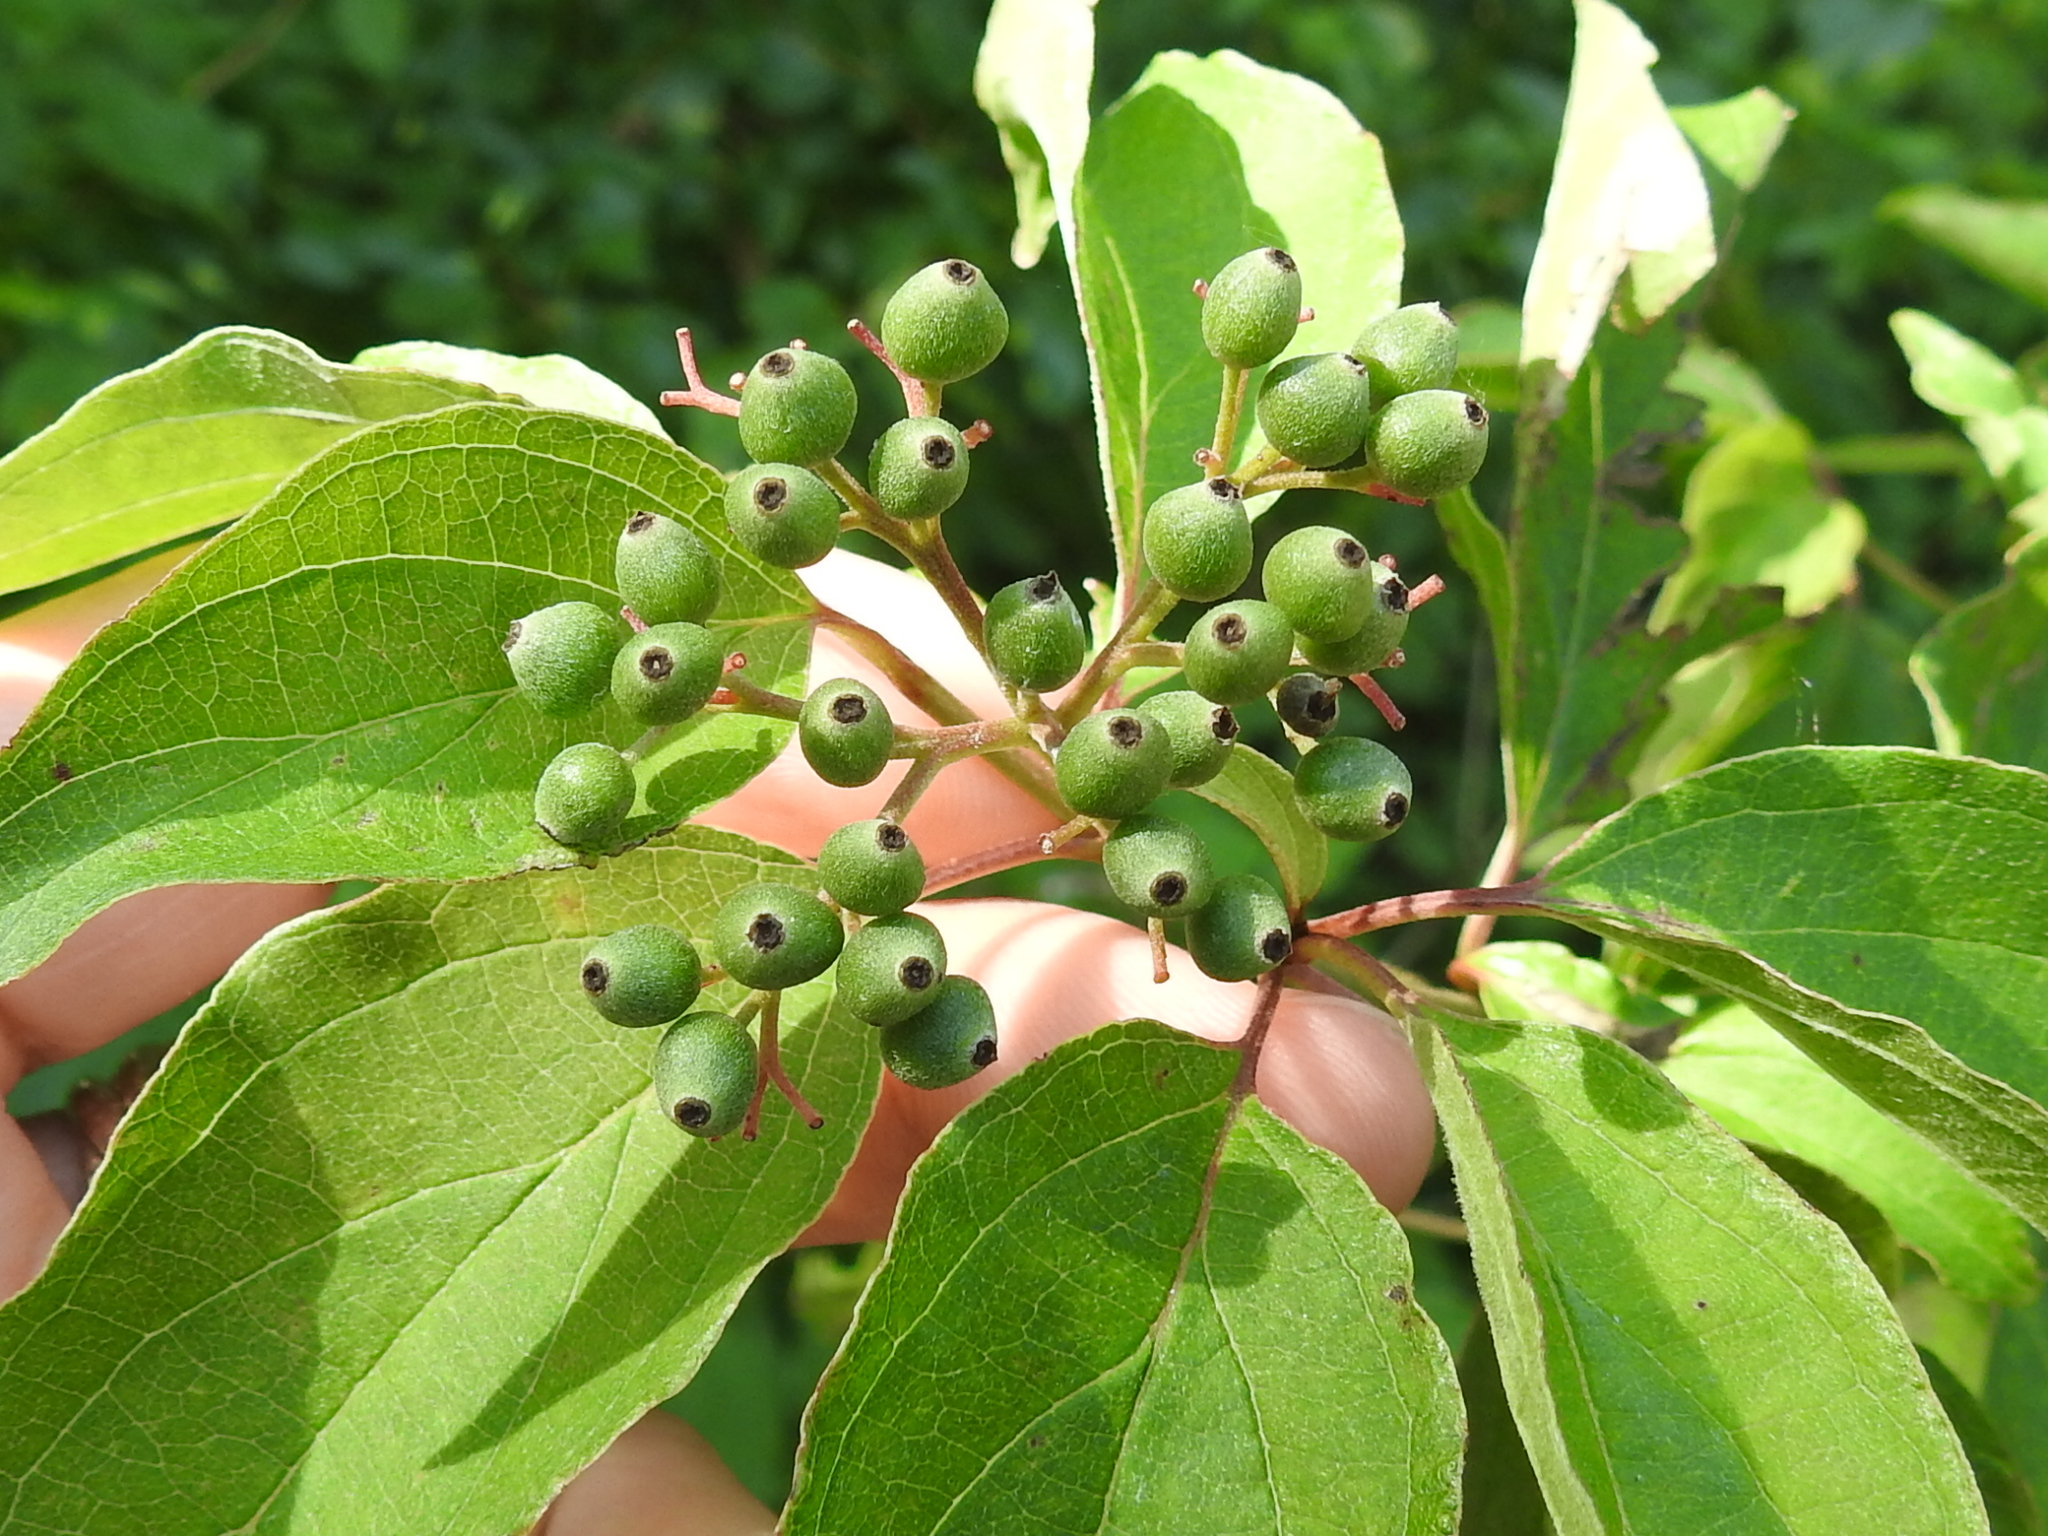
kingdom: Plantae
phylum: Tracheophyta
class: Magnoliopsida
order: Cornales
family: Cornaceae
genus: Cornus
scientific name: Cornus drummondii
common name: Rough-leaf dogwood
